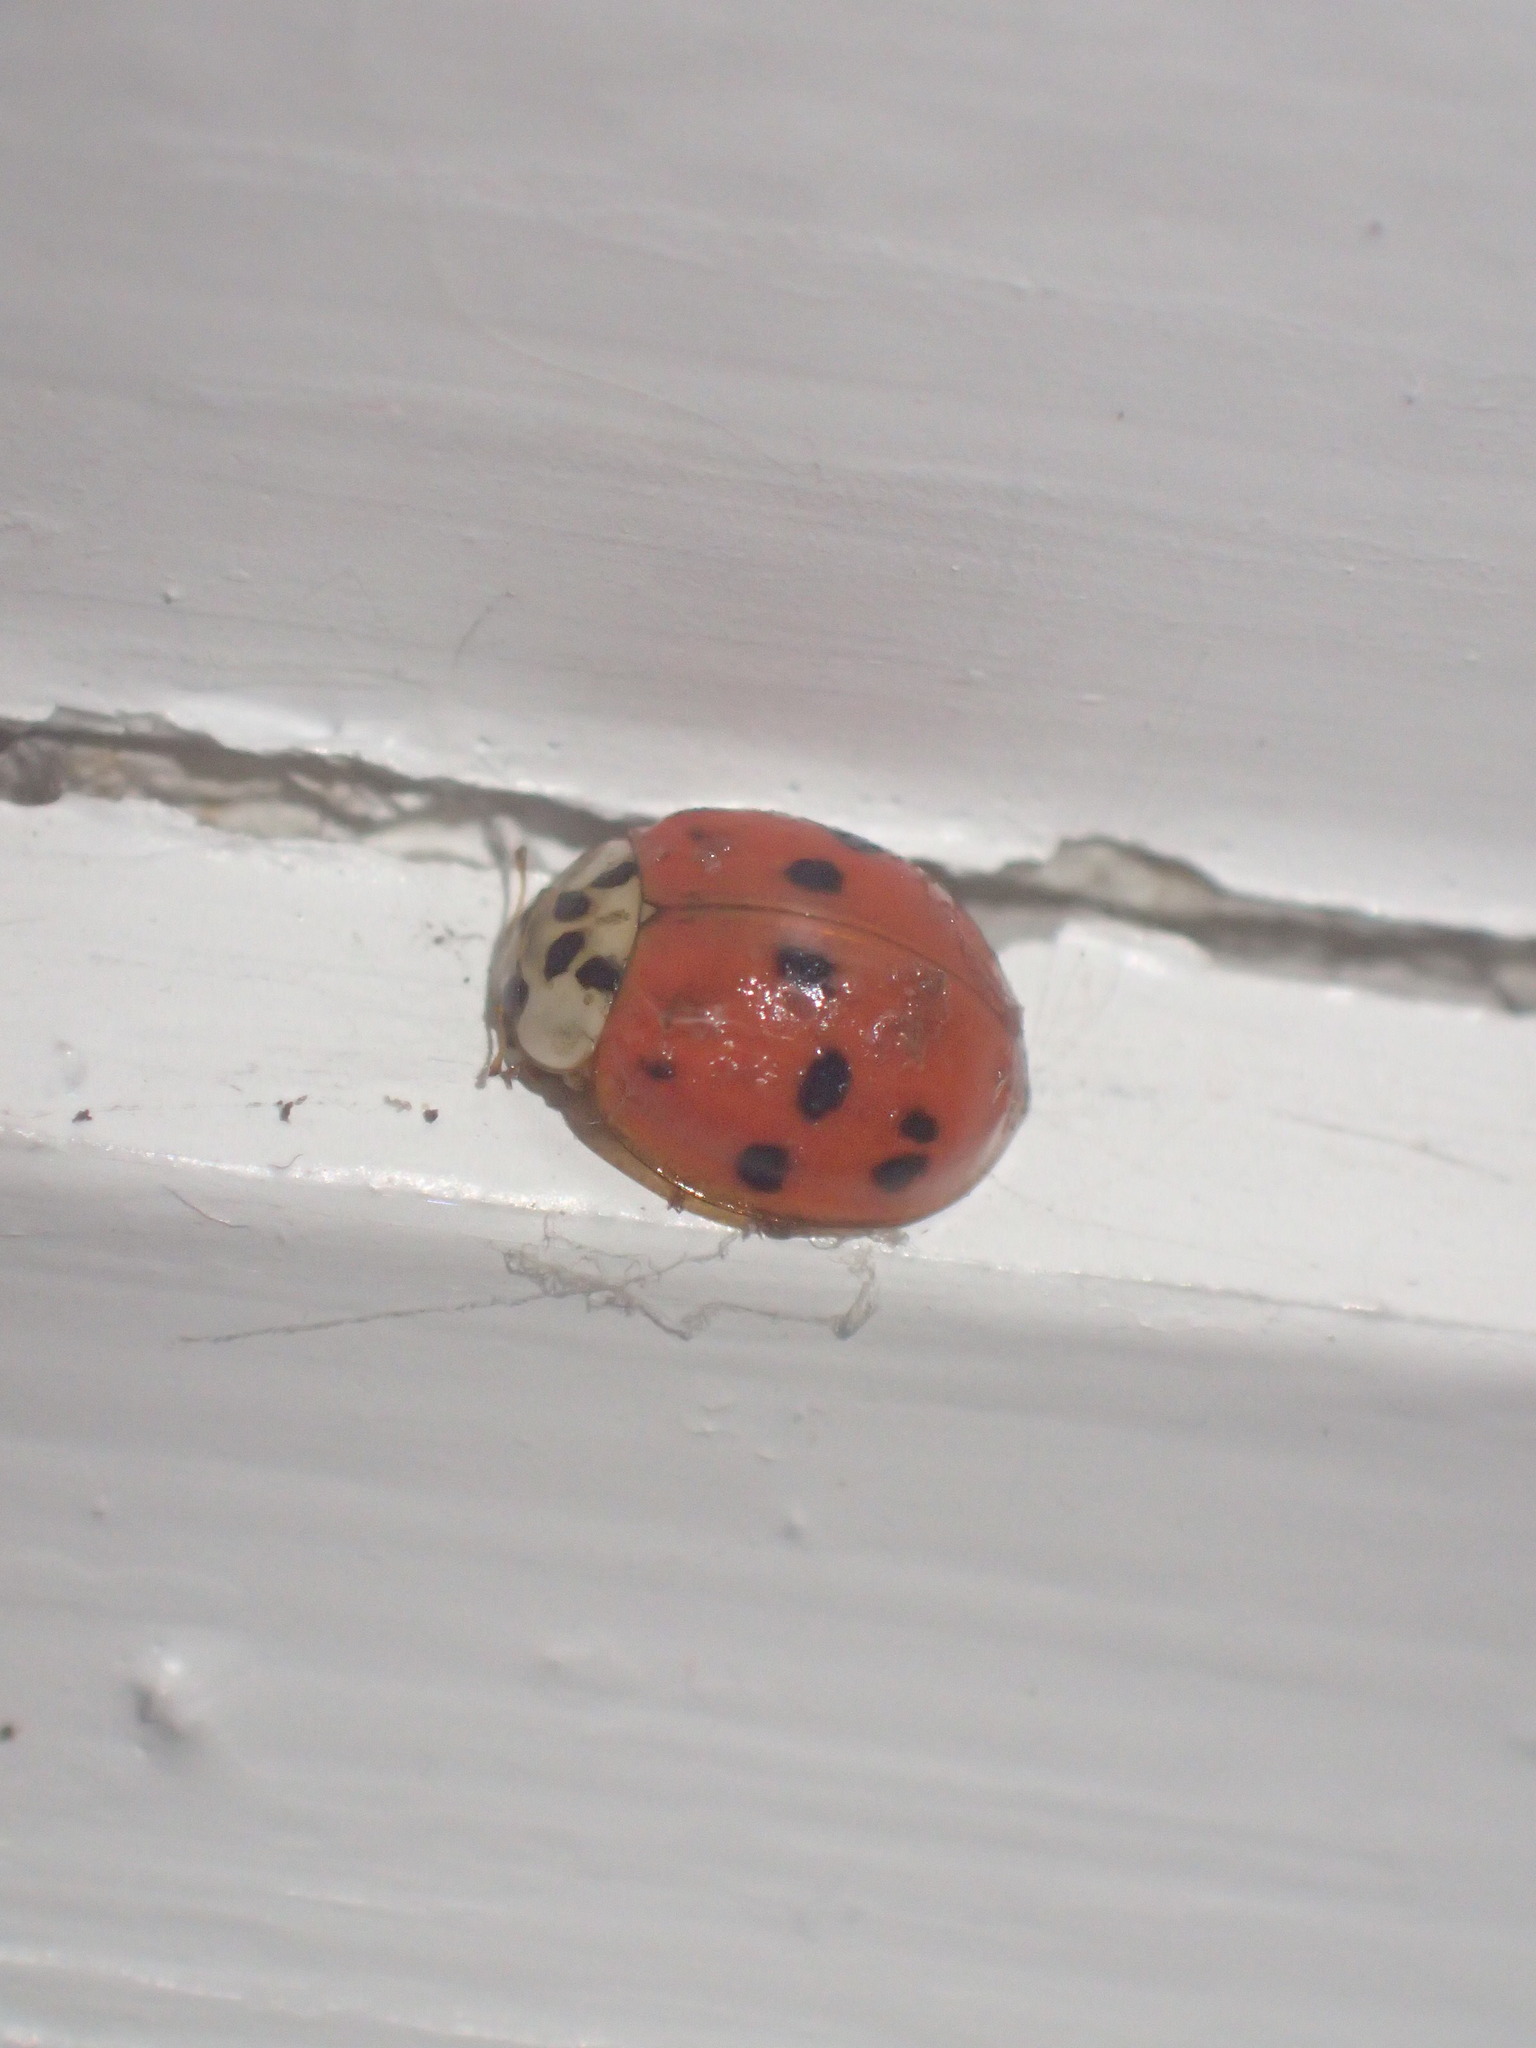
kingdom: Animalia
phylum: Arthropoda
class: Insecta
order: Coleoptera
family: Coccinellidae
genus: Harmonia
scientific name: Harmonia axyridis
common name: Harlequin ladybird
